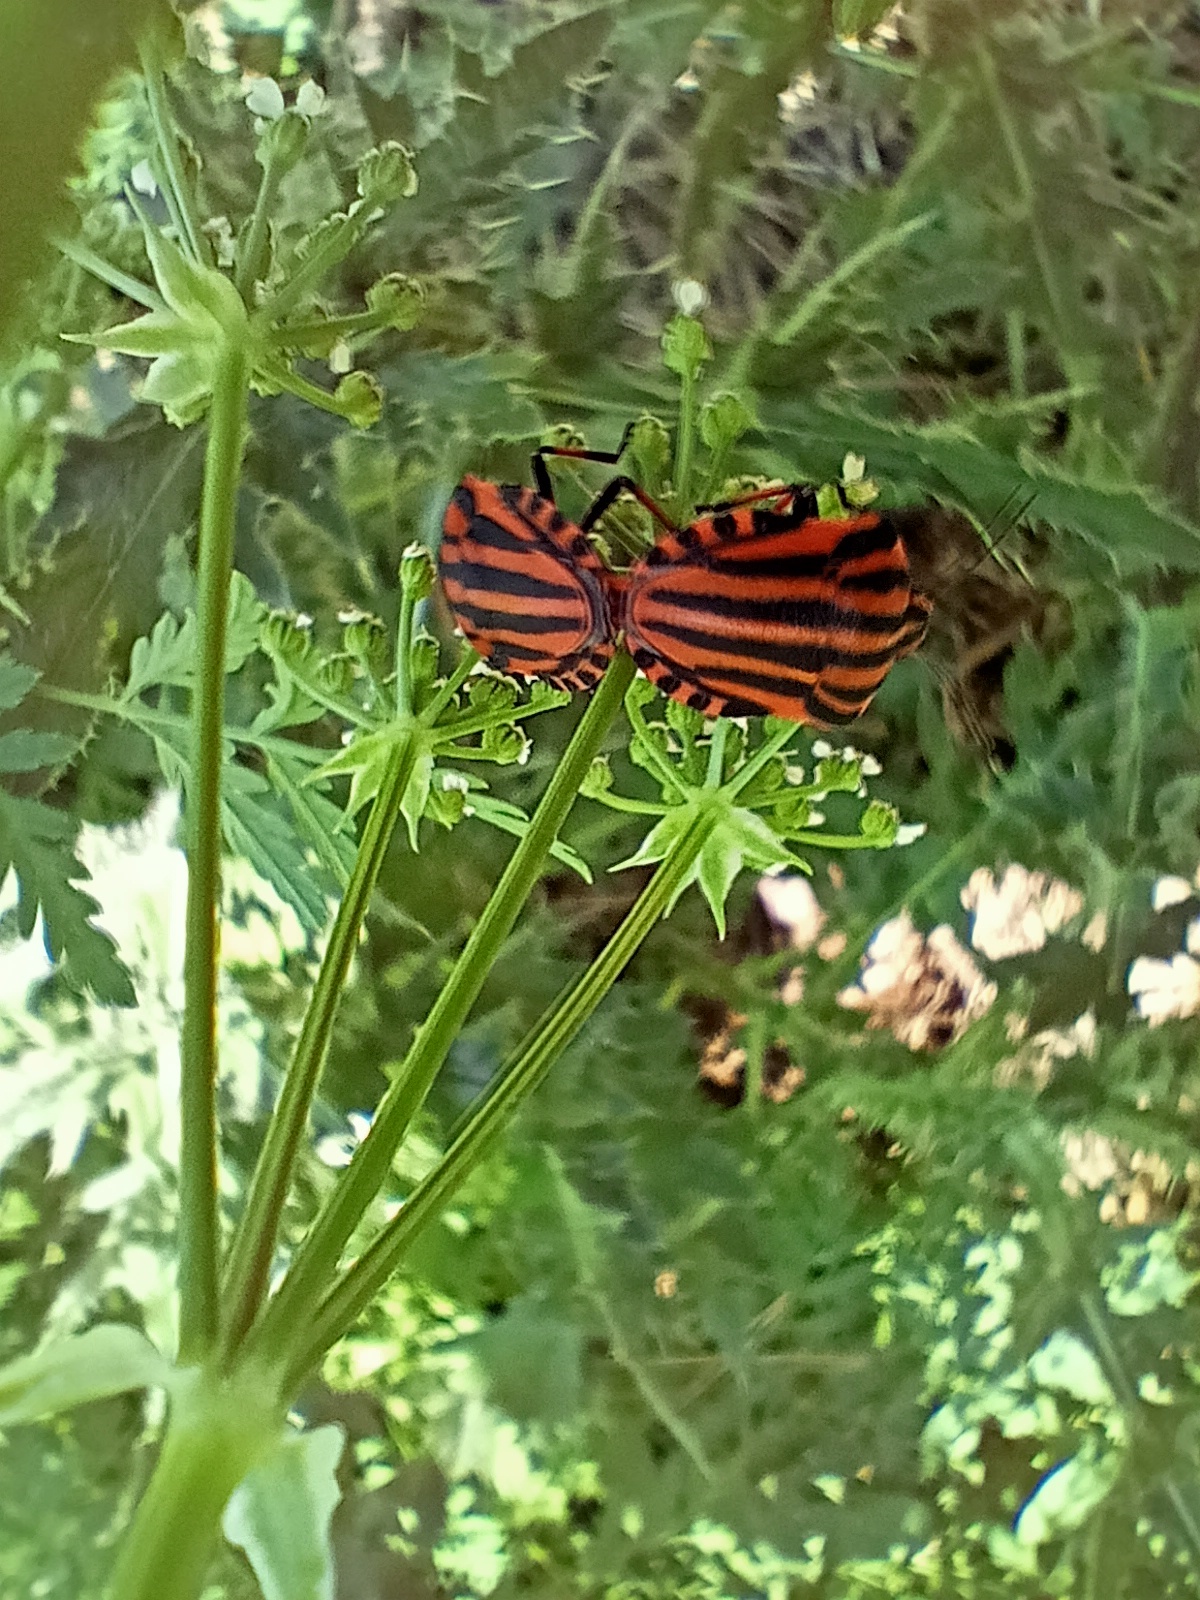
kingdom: Animalia
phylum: Arthropoda
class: Insecta
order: Hemiptera
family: Pentatomidae
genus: Graphosoma
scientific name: Graphosoma italicum
